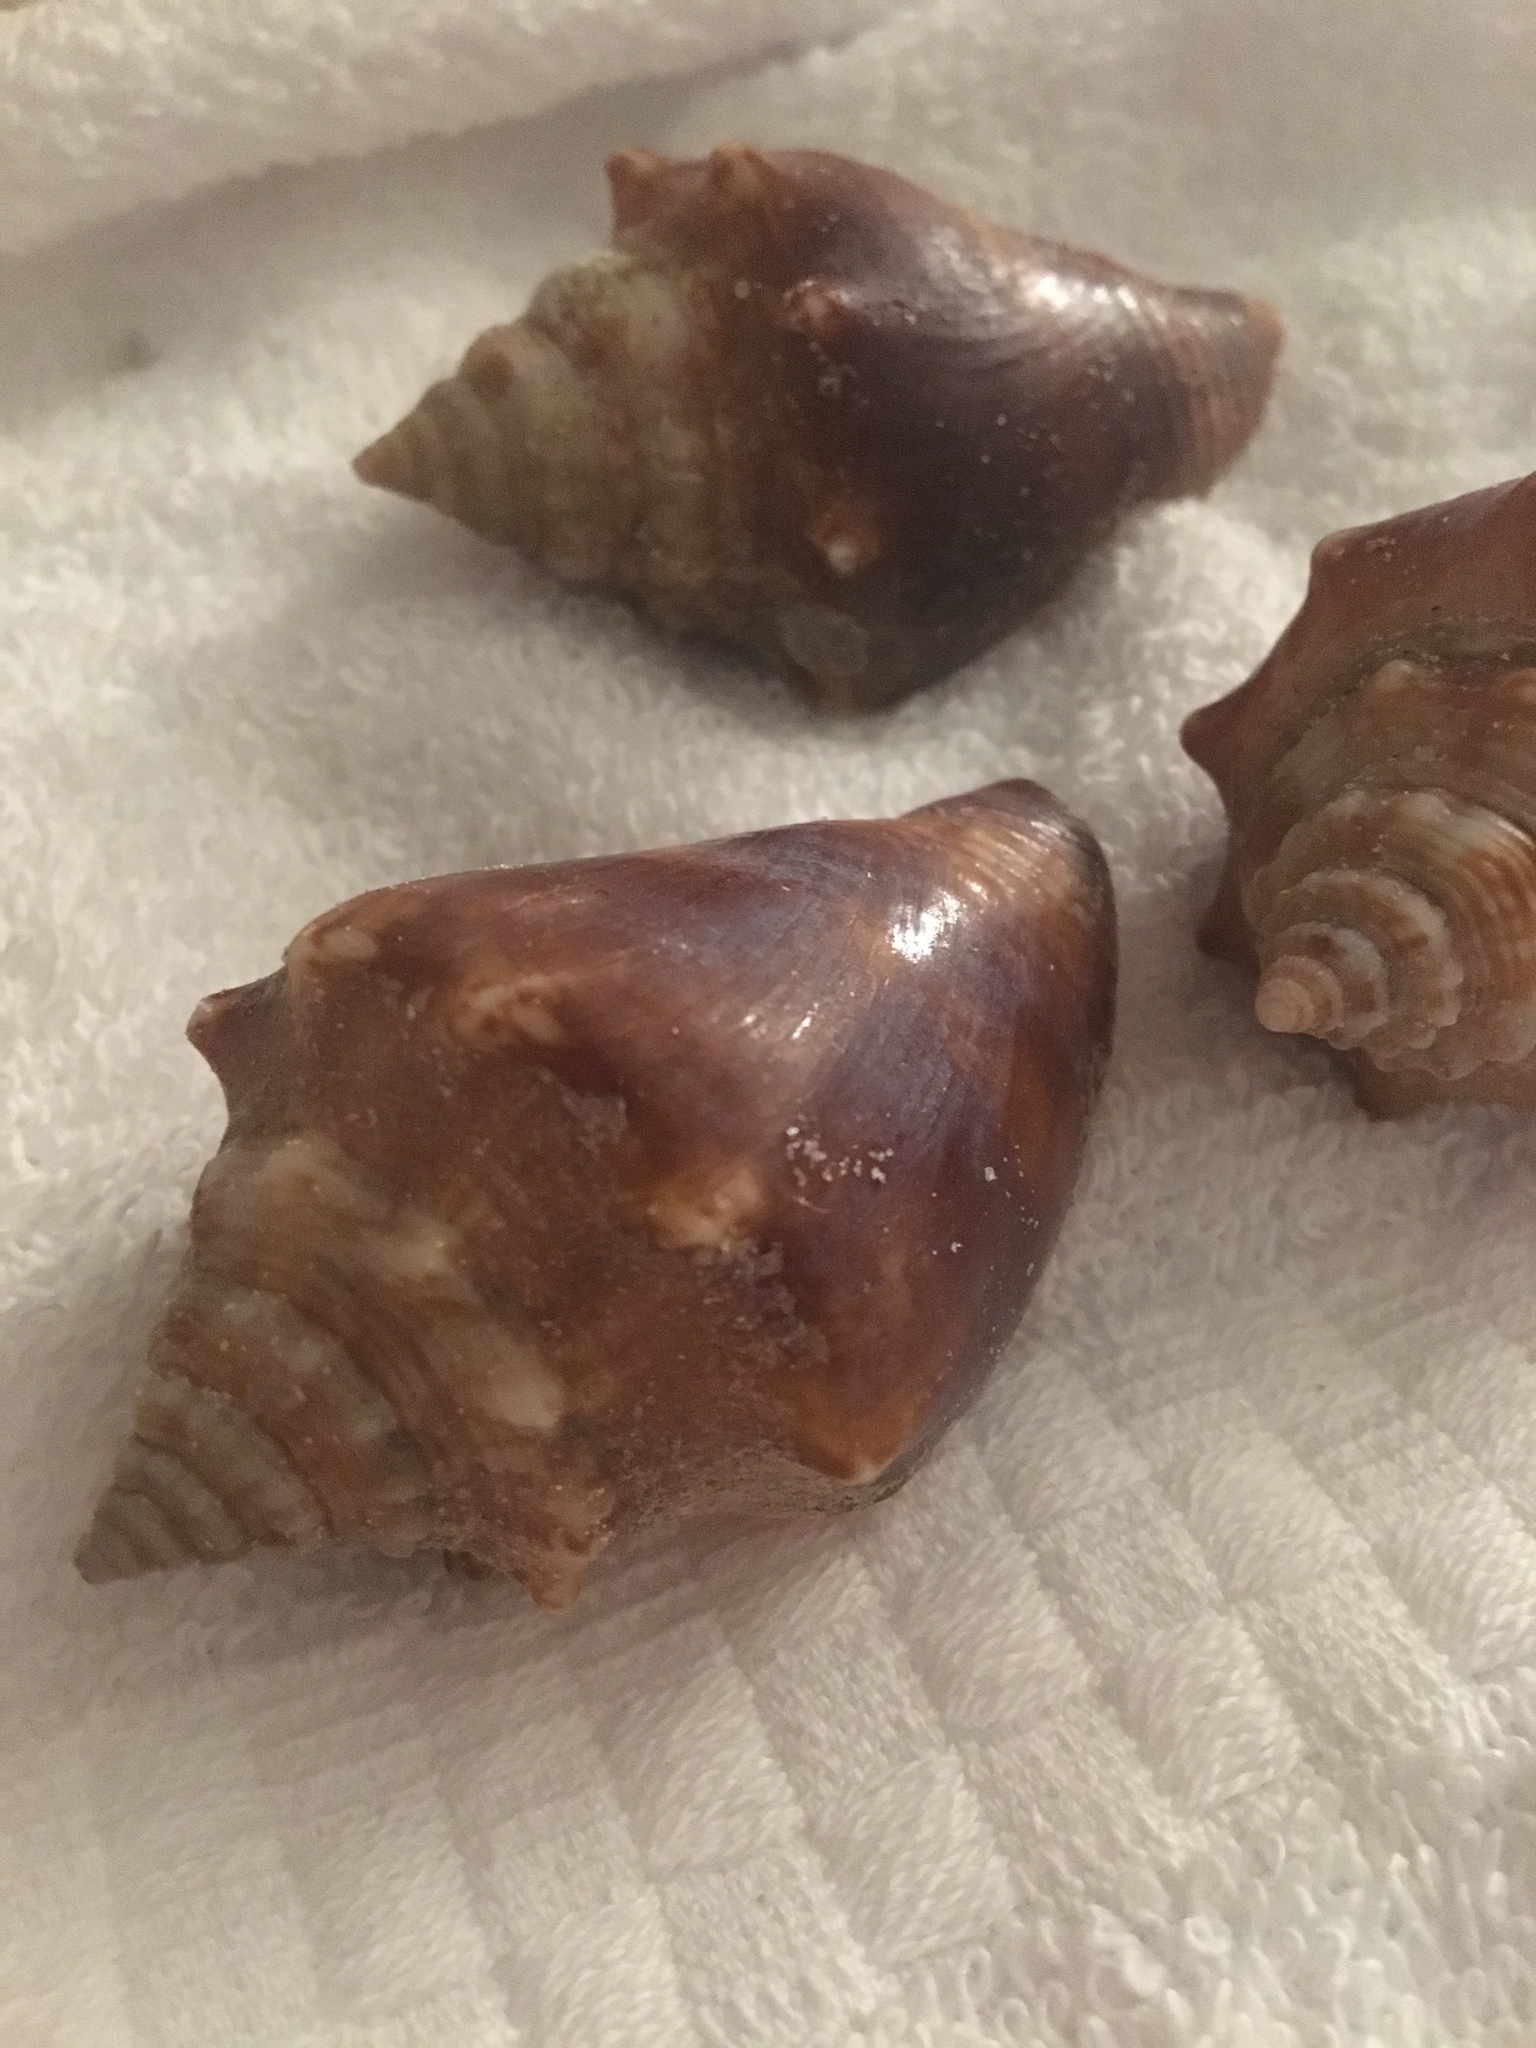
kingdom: Animalia
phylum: Mollusca
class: Gastropoda
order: Littorinimorpha
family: Strombidae
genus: Strombus
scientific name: Strombus alatus
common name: Florida fighting conch
